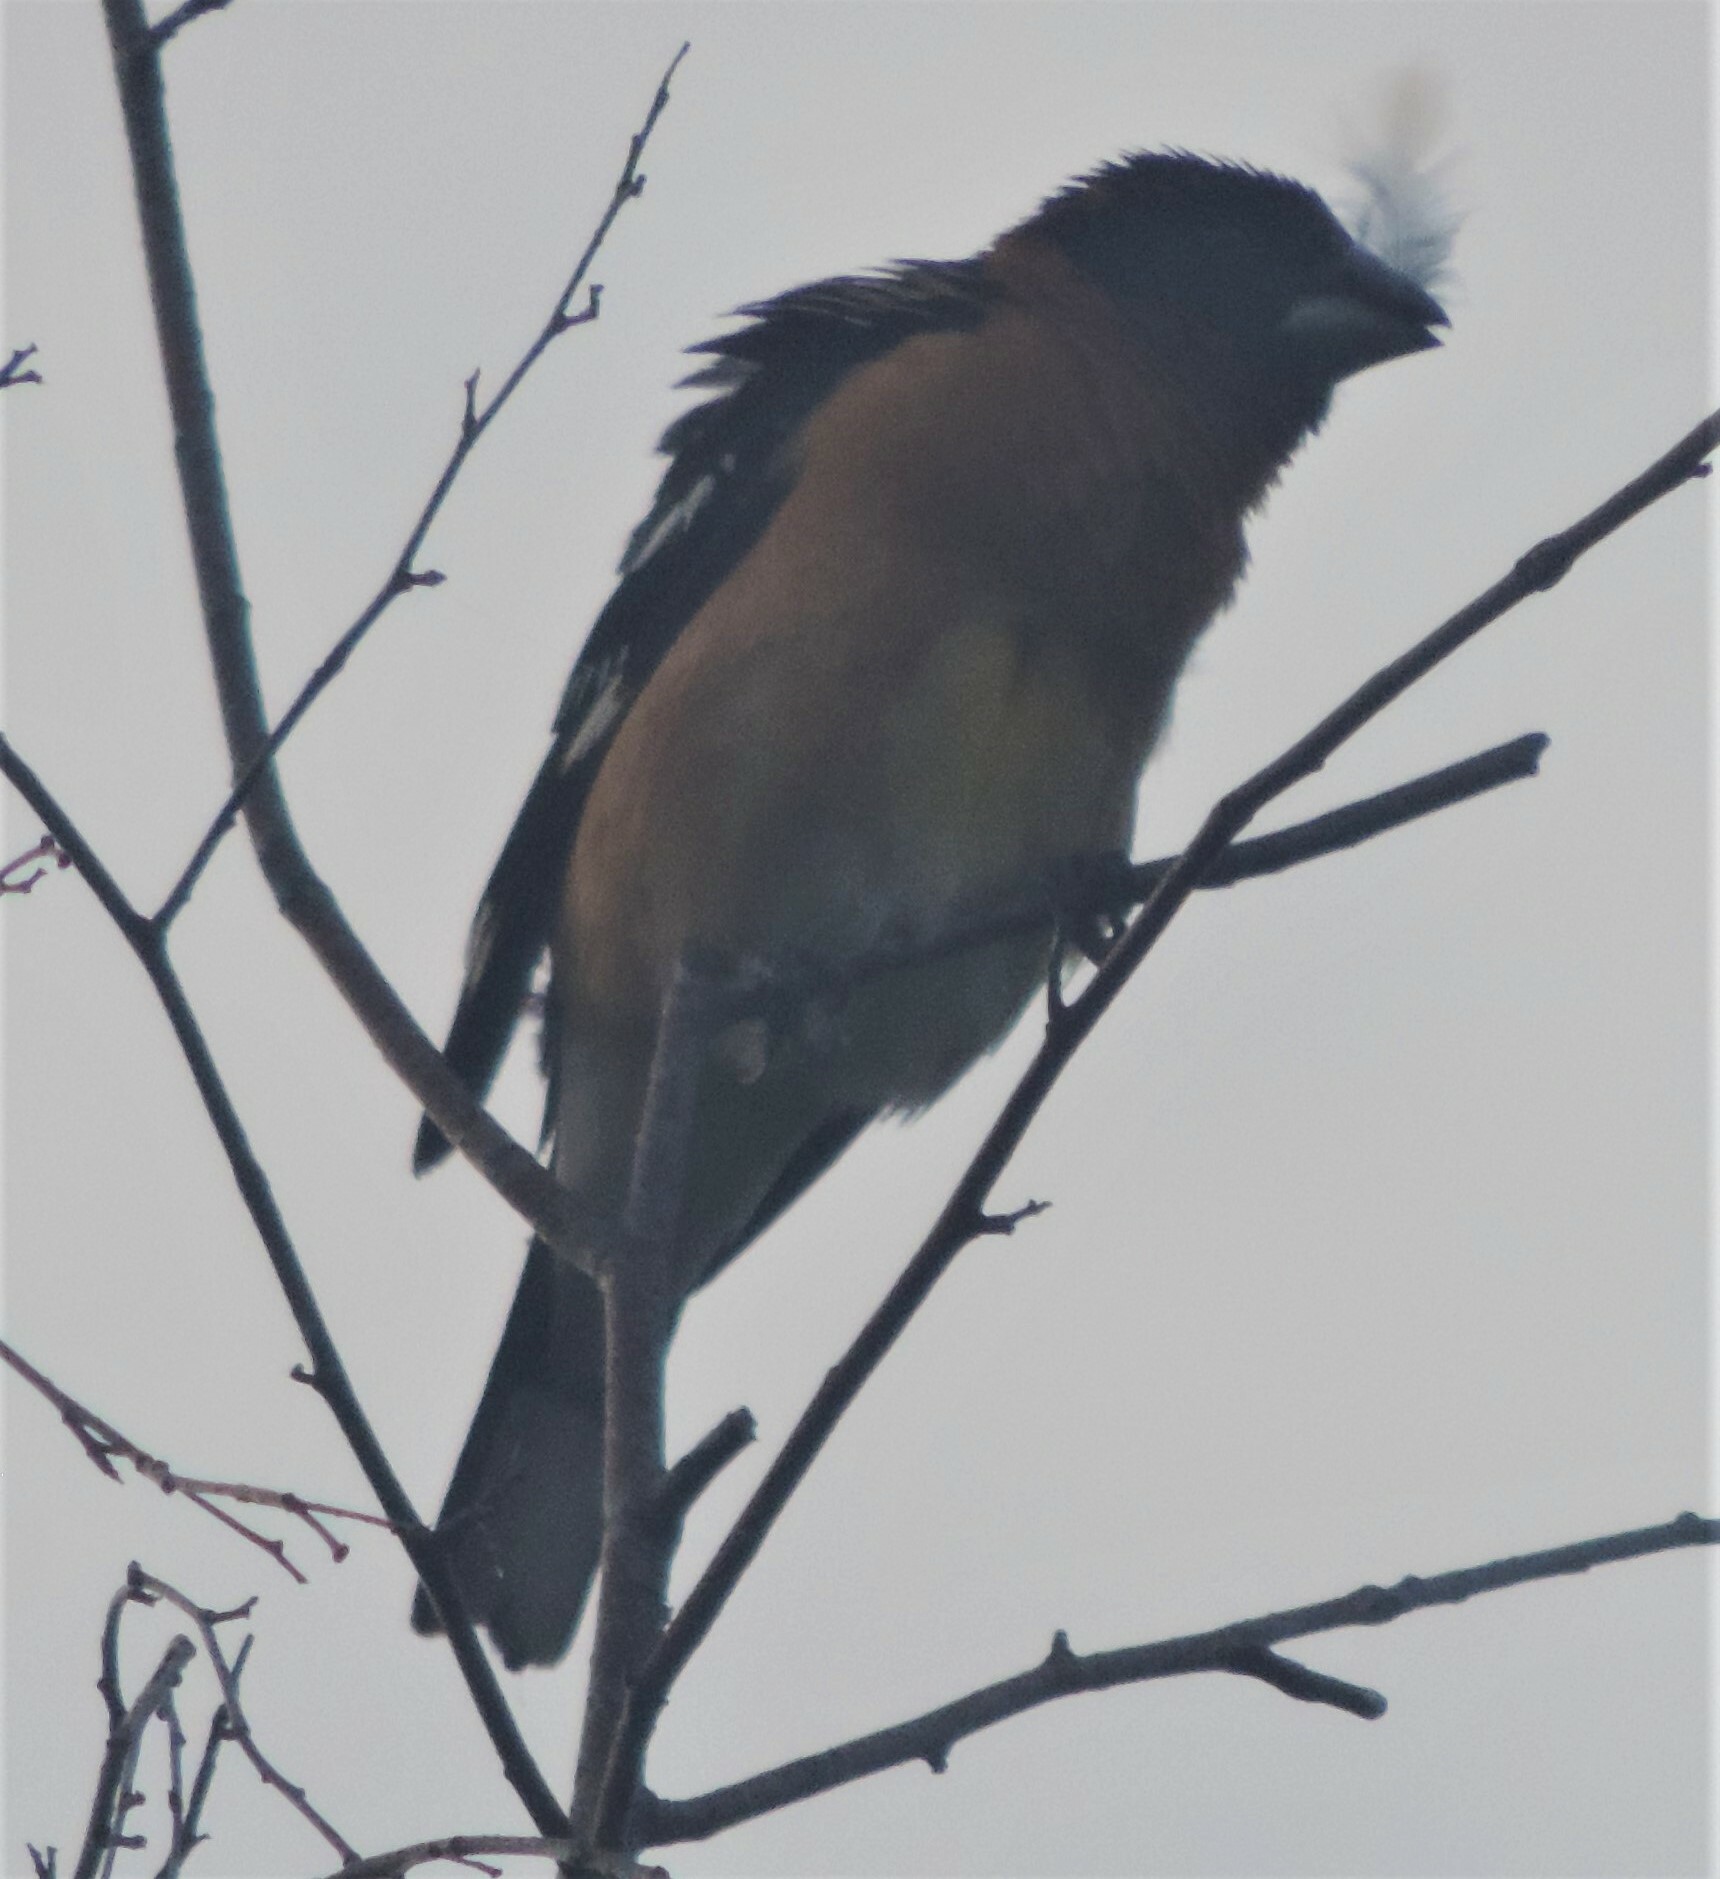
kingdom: Animalia
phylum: Chordata
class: Aves
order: Passeriformes
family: Cardinalidae
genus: Pheucticus
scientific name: Pheucticus melanocephalus
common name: Black-headed grosbeak
